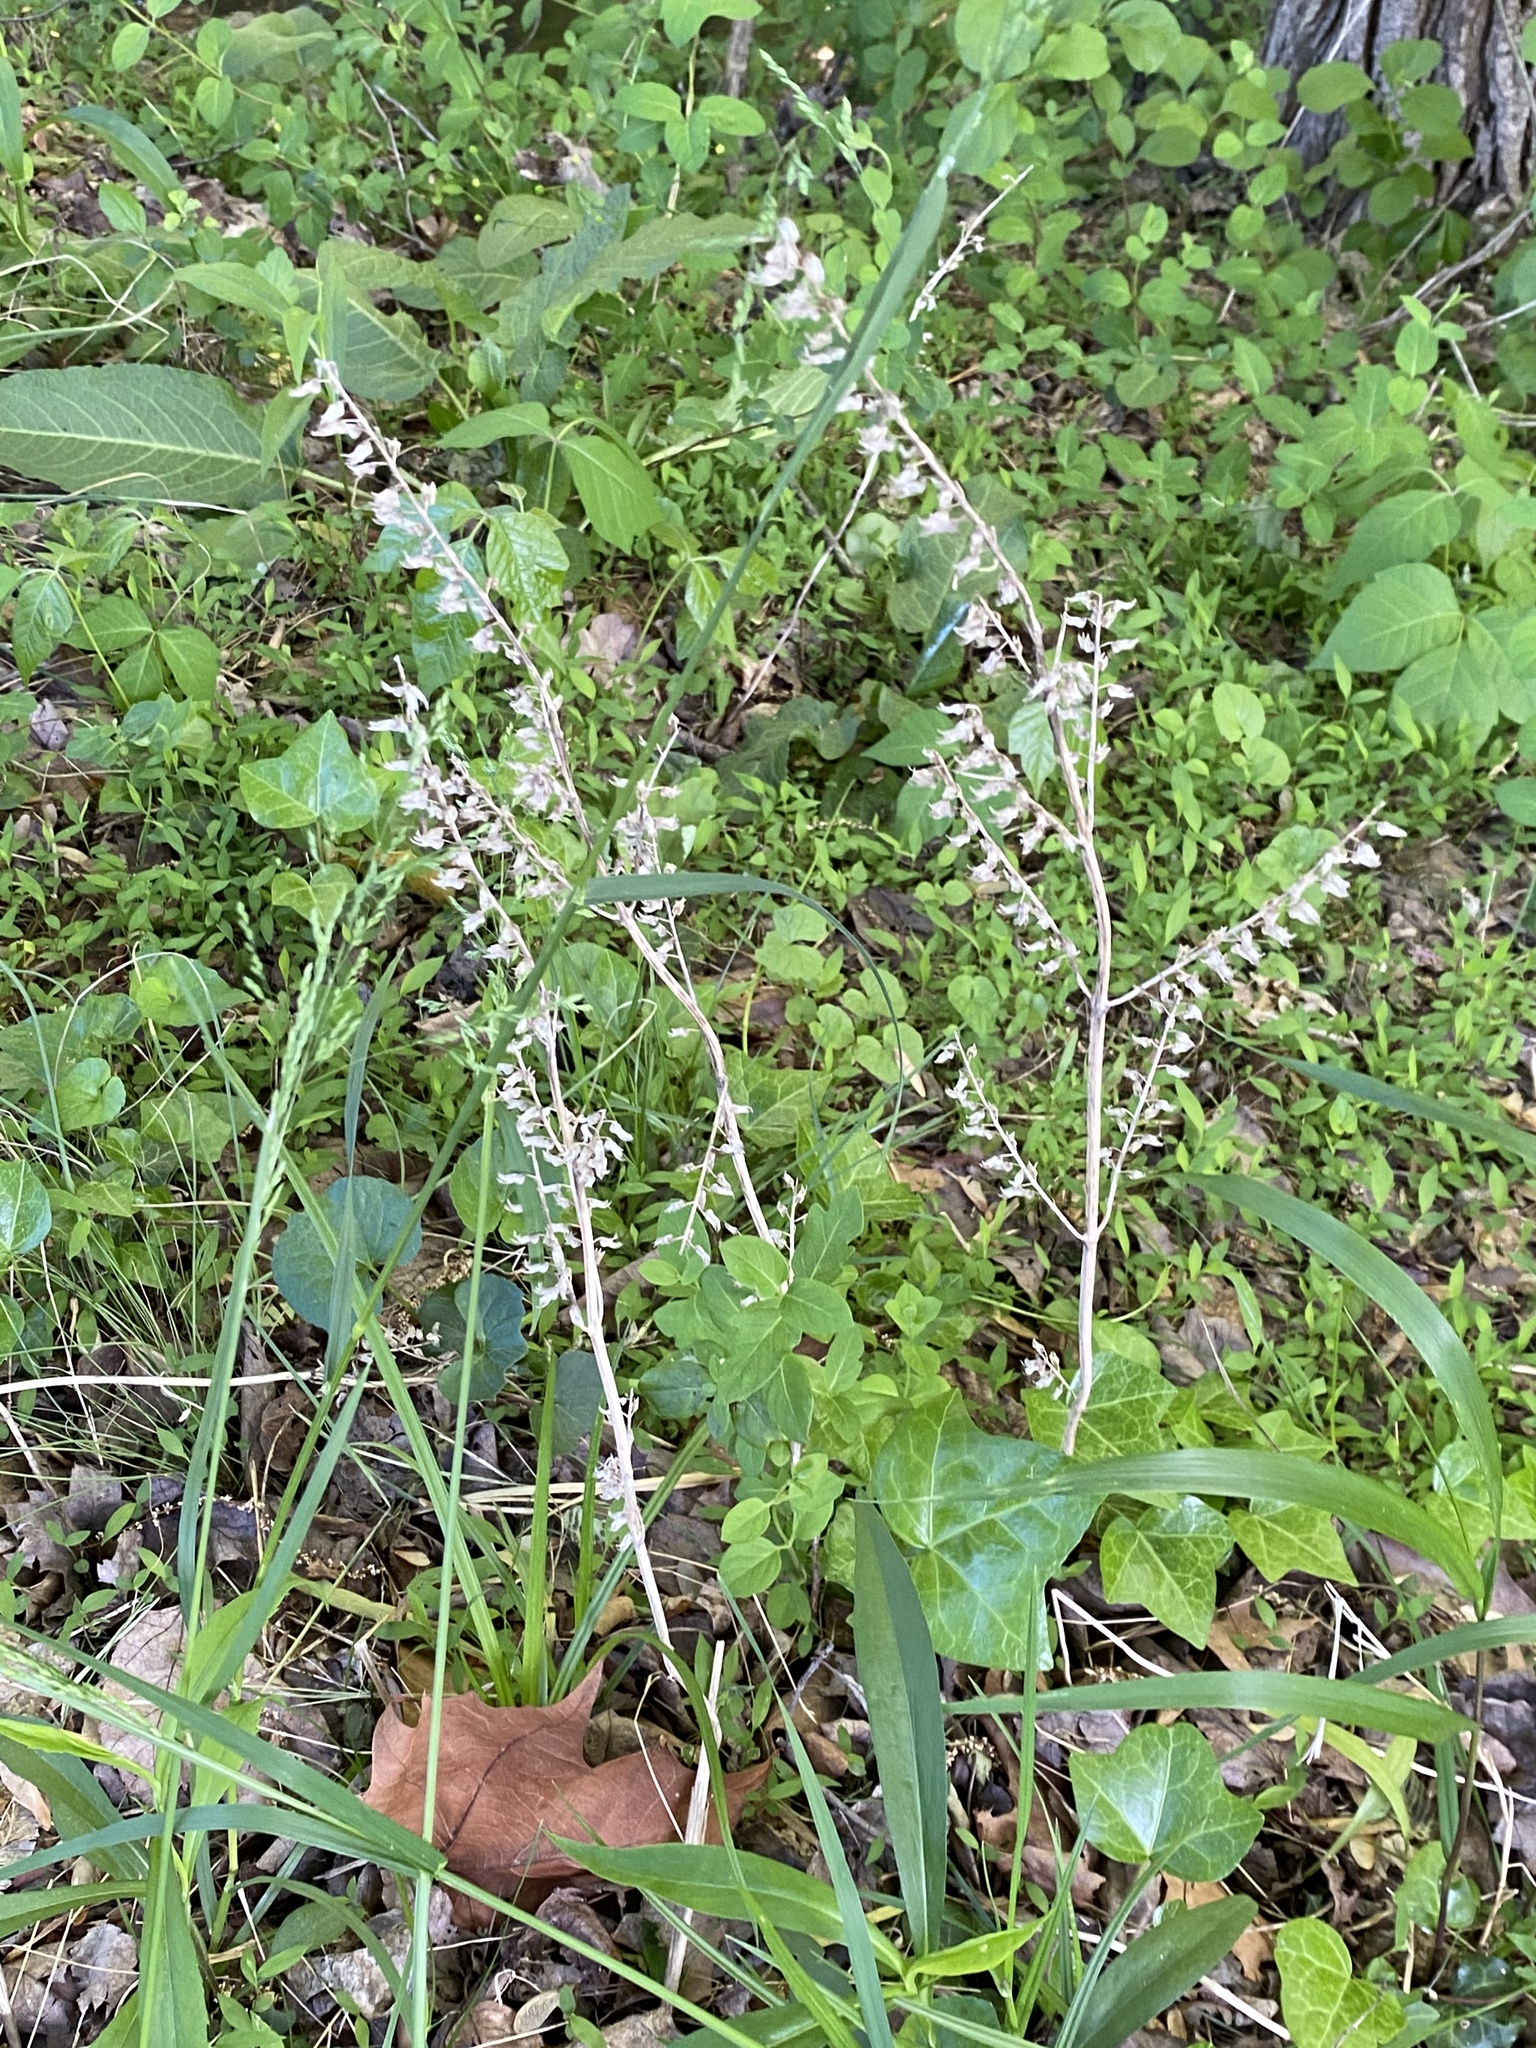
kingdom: Plantae
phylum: Tracheophyta
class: Magnoliopsida
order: Lamiales
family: Lamiaceae
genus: Perilla
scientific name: Perilla frutescens
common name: Perilla
